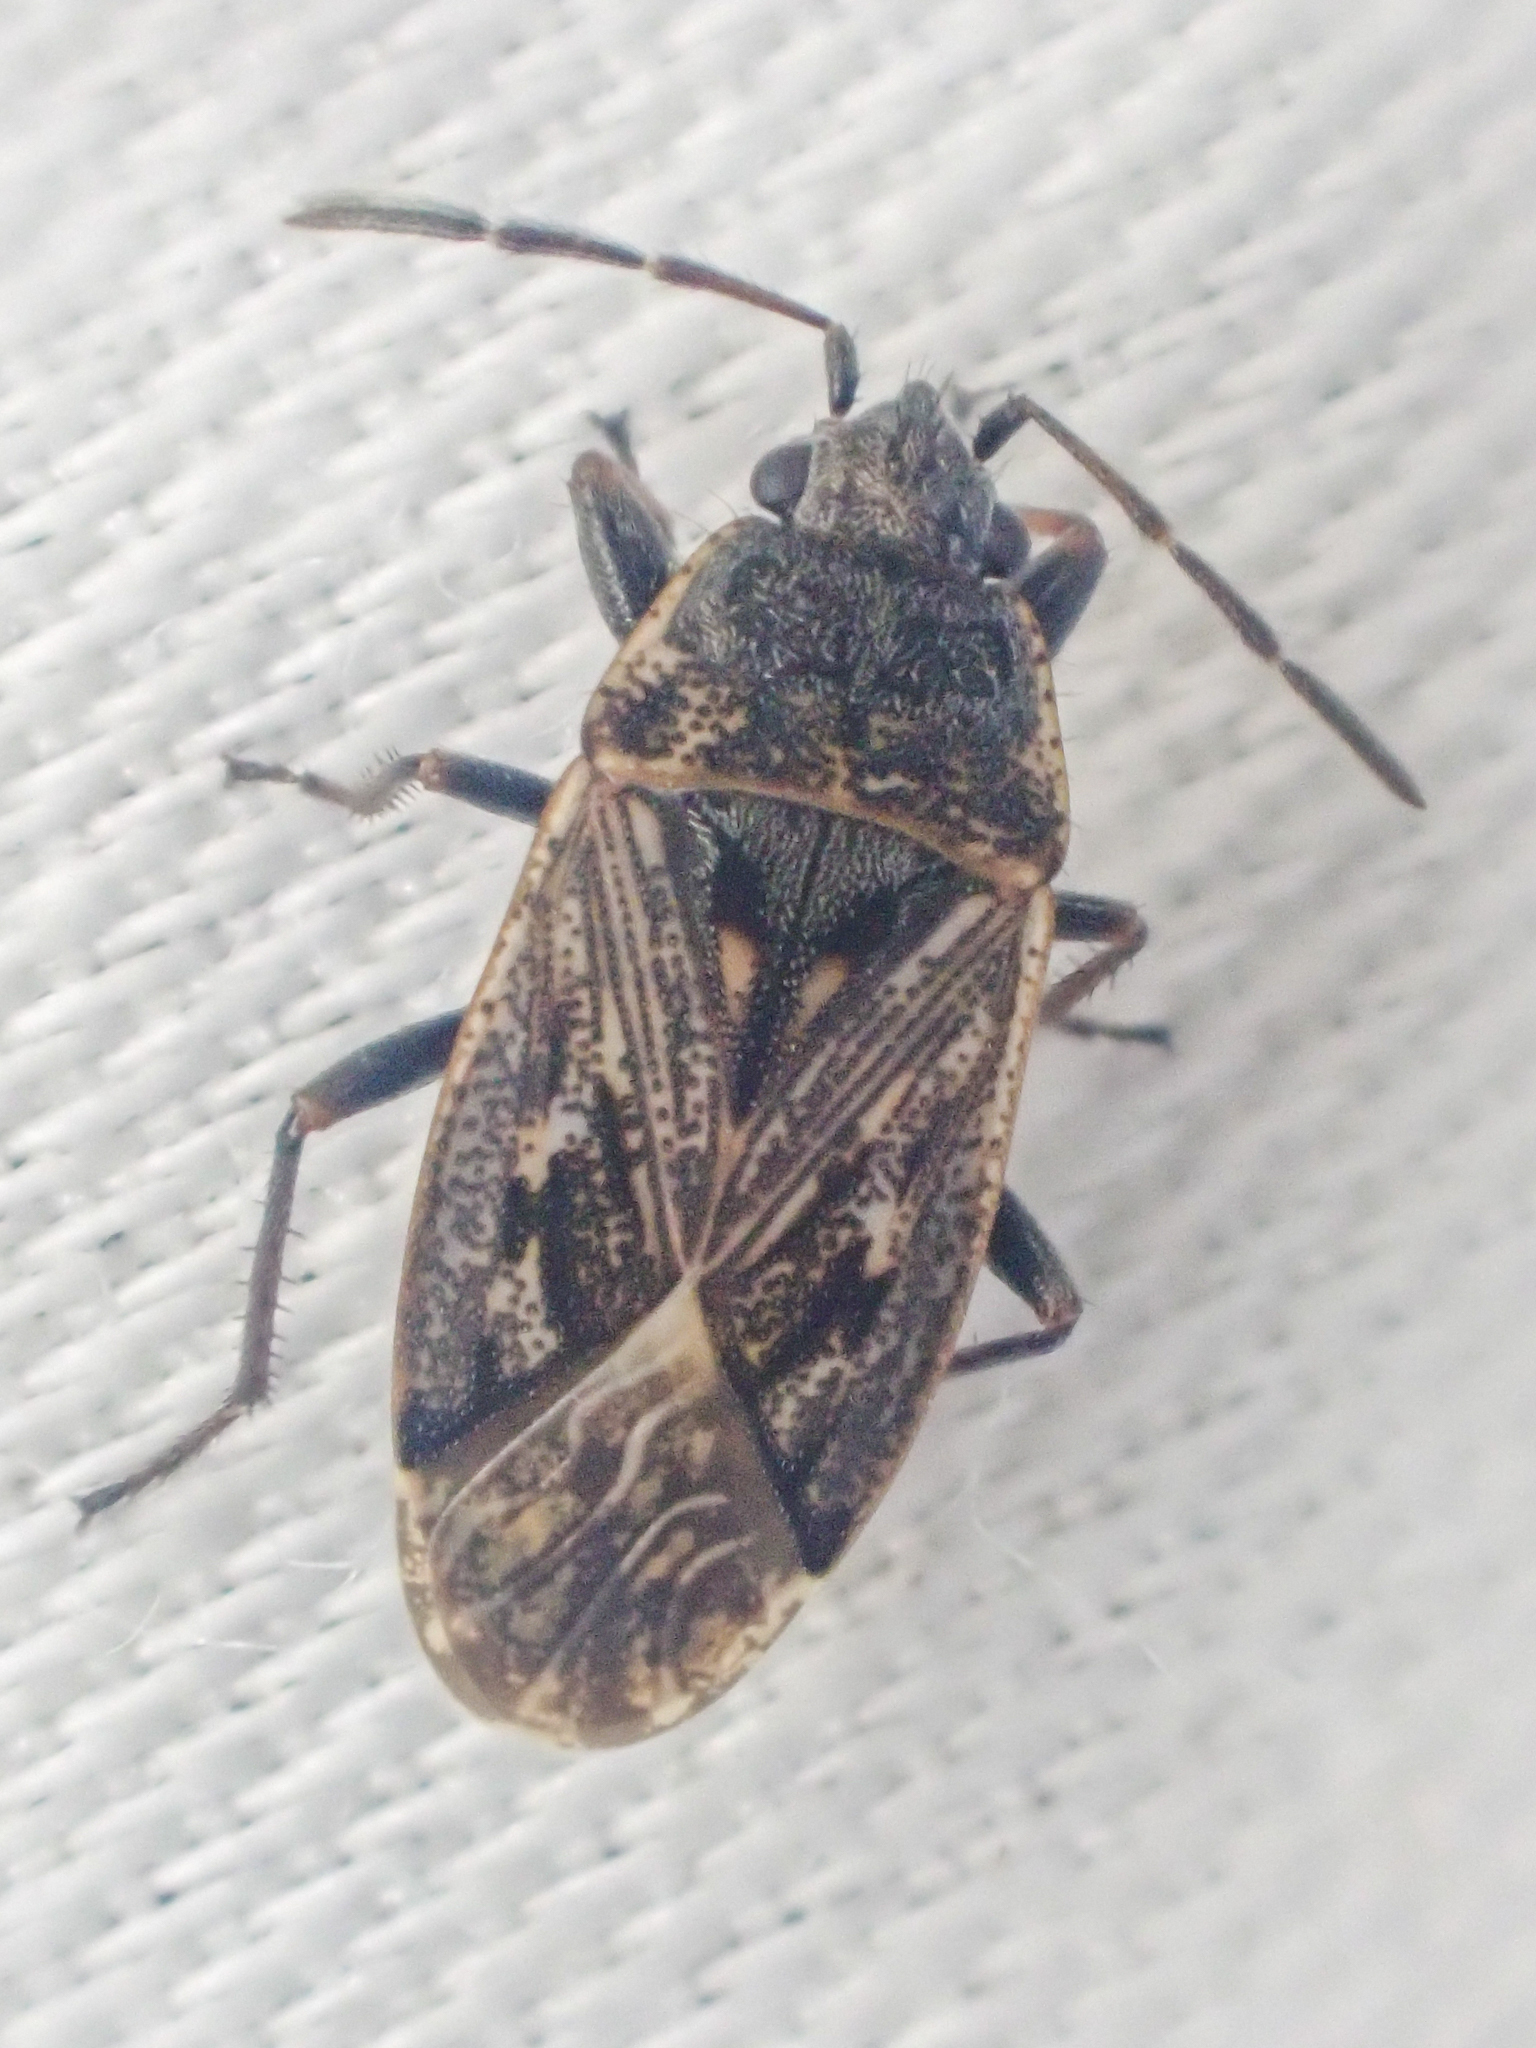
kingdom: Animalia
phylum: Arthropoda
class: Insecta
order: Hemiptera
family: Rhyparochromidae
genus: Sphragisticus
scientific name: Sphragisticus nebulosus
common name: Dirt-colored seed bug
